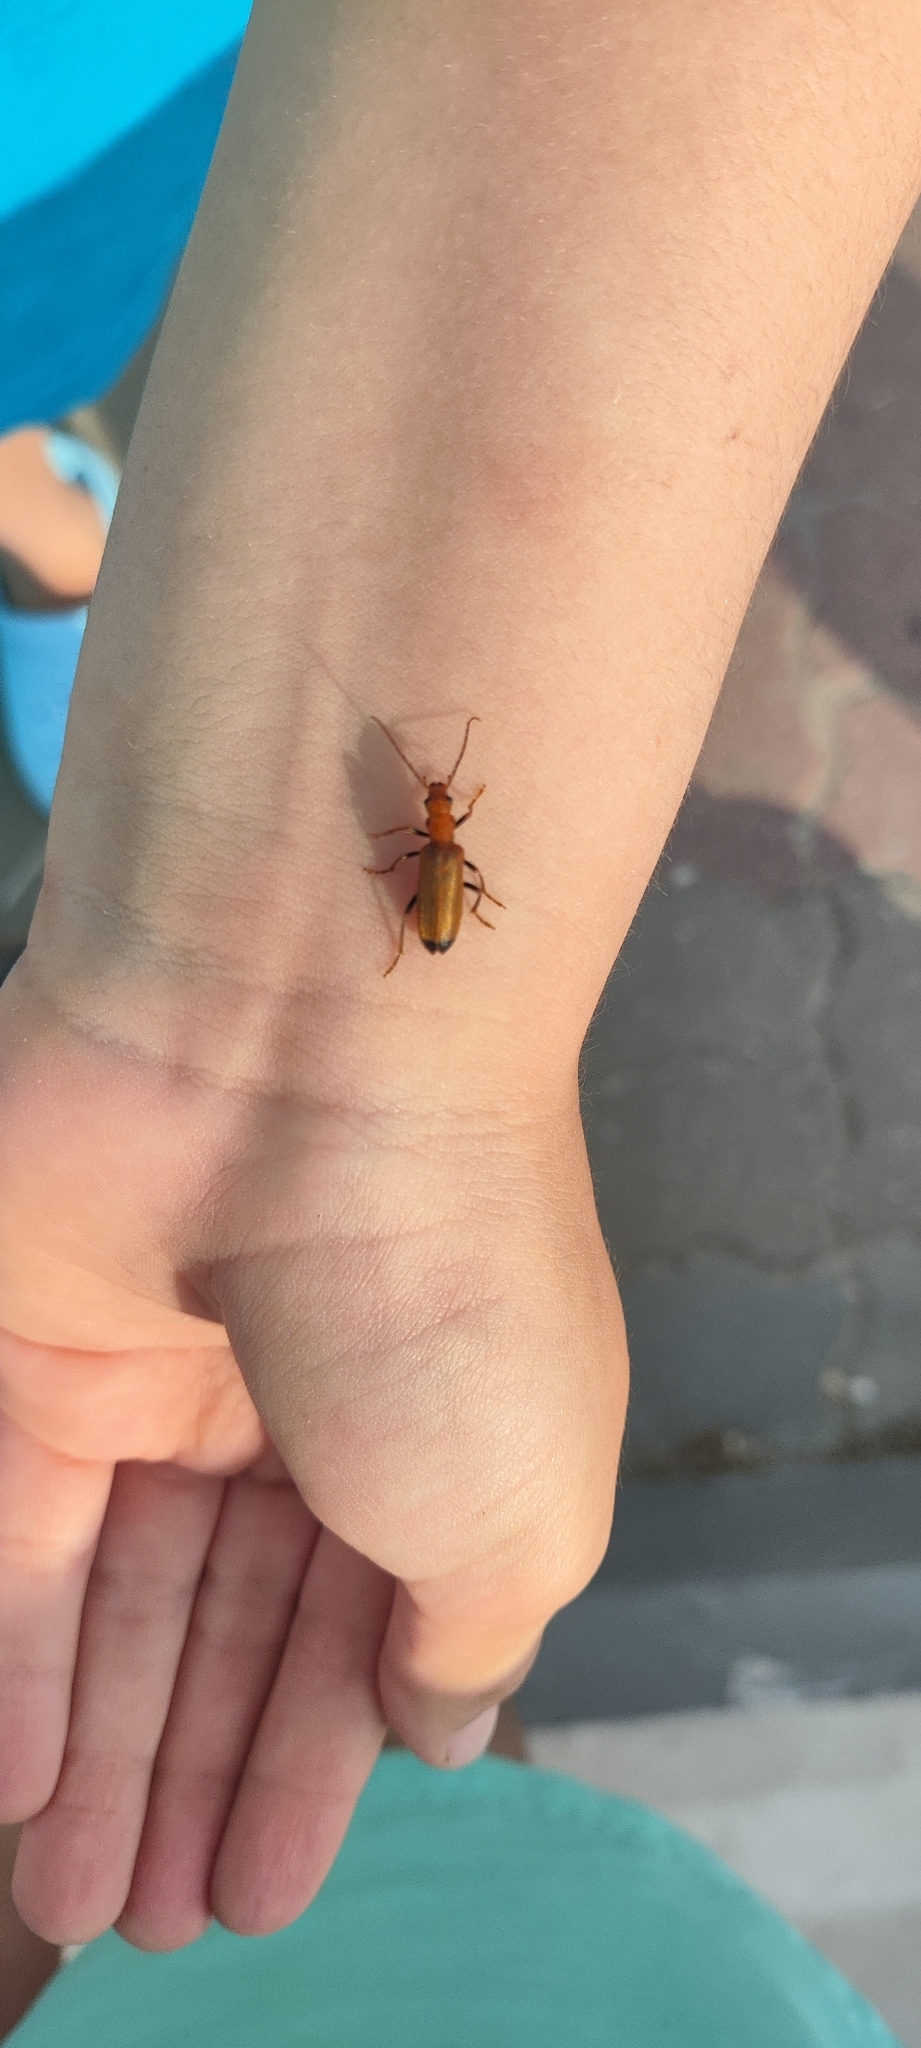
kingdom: Animalia
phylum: Arthropoda
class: Insecta
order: Coleoptera
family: Oedemeridae
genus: Nacerdes
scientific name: Nacerdes melanura
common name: Wharf borer
